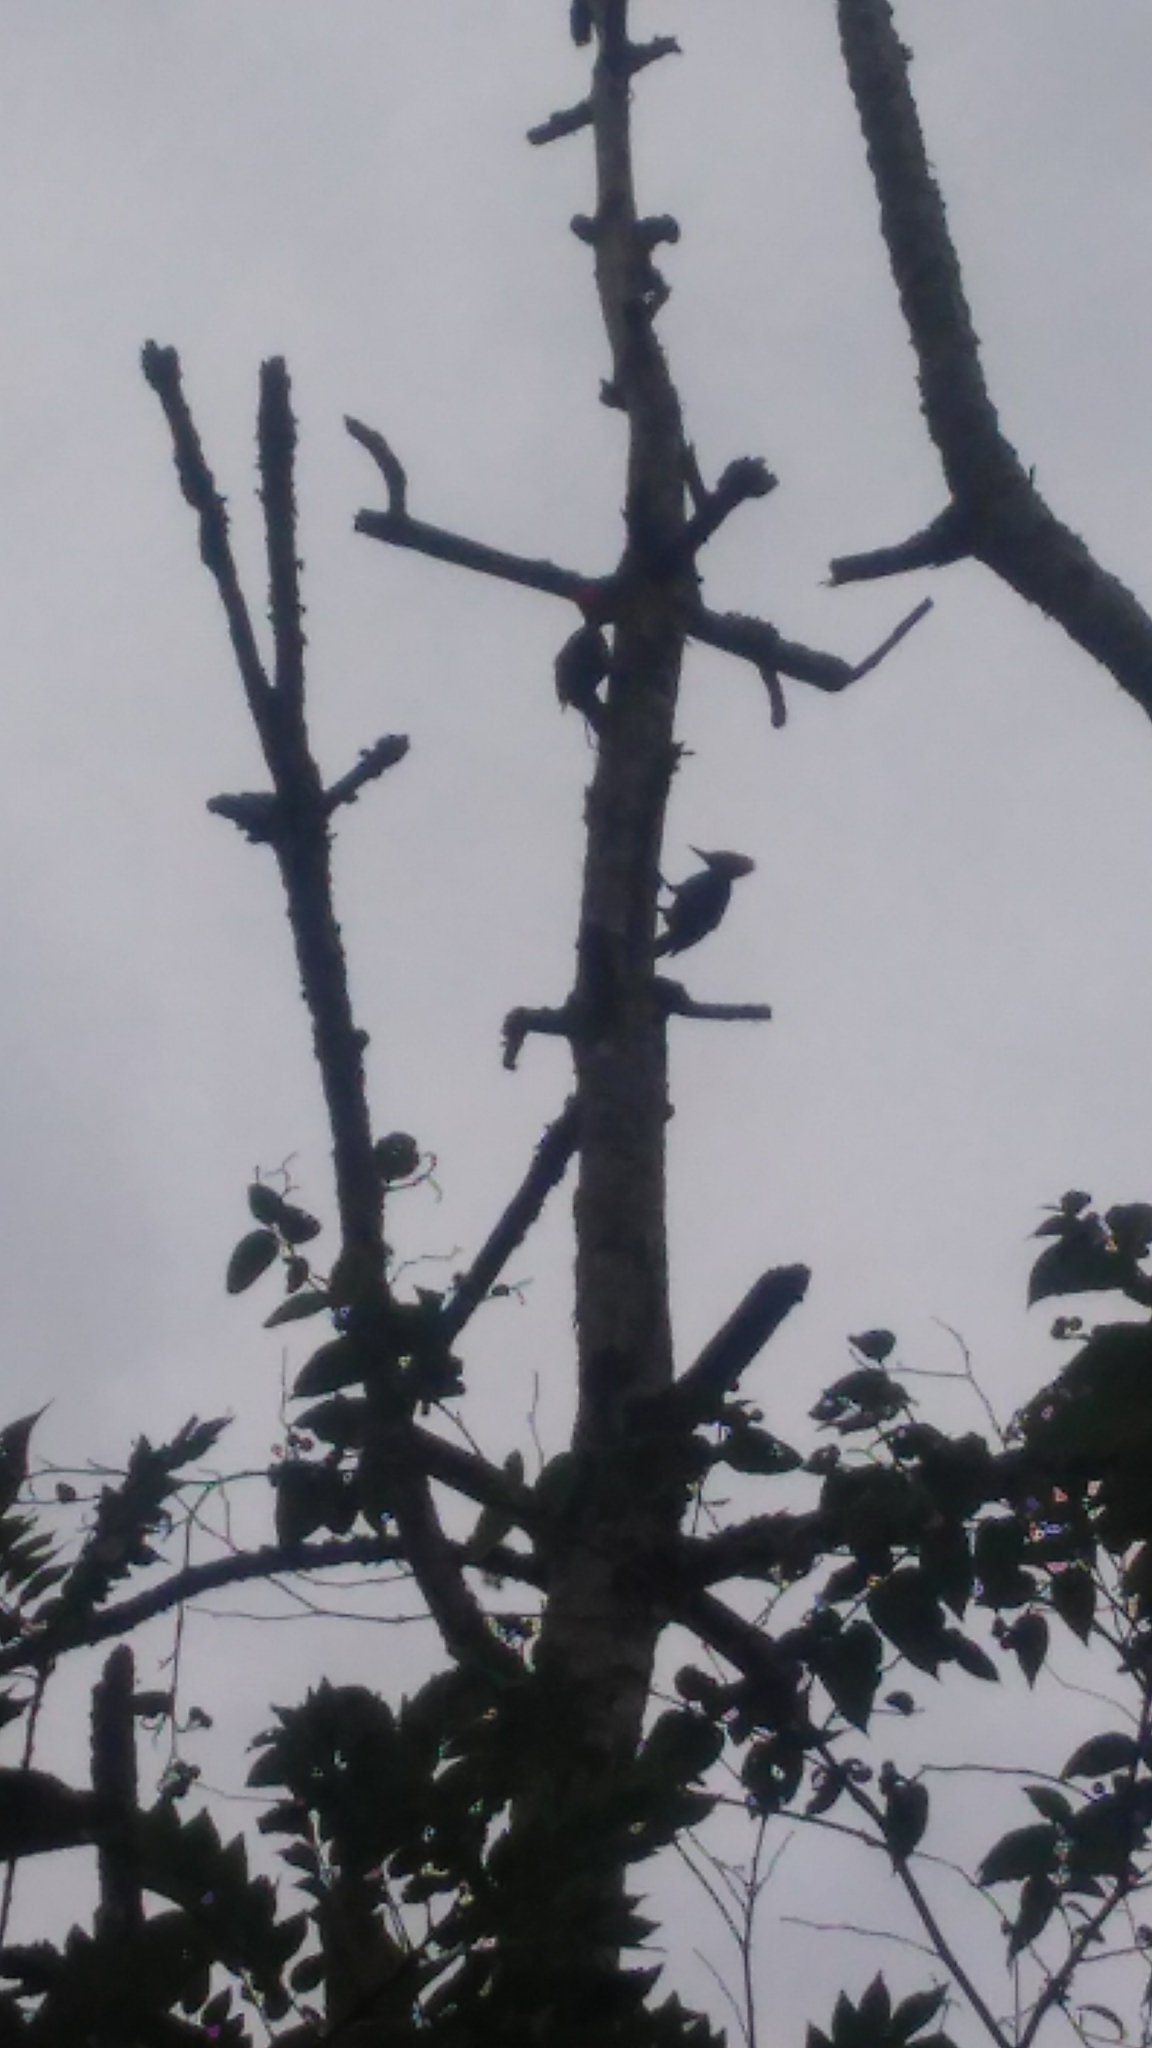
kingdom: Animalia
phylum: Chordata
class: Aves
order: Piciformes
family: Picidae
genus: Dryocopus
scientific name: Dryocopus lineatus
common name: Lineated woodpecker
